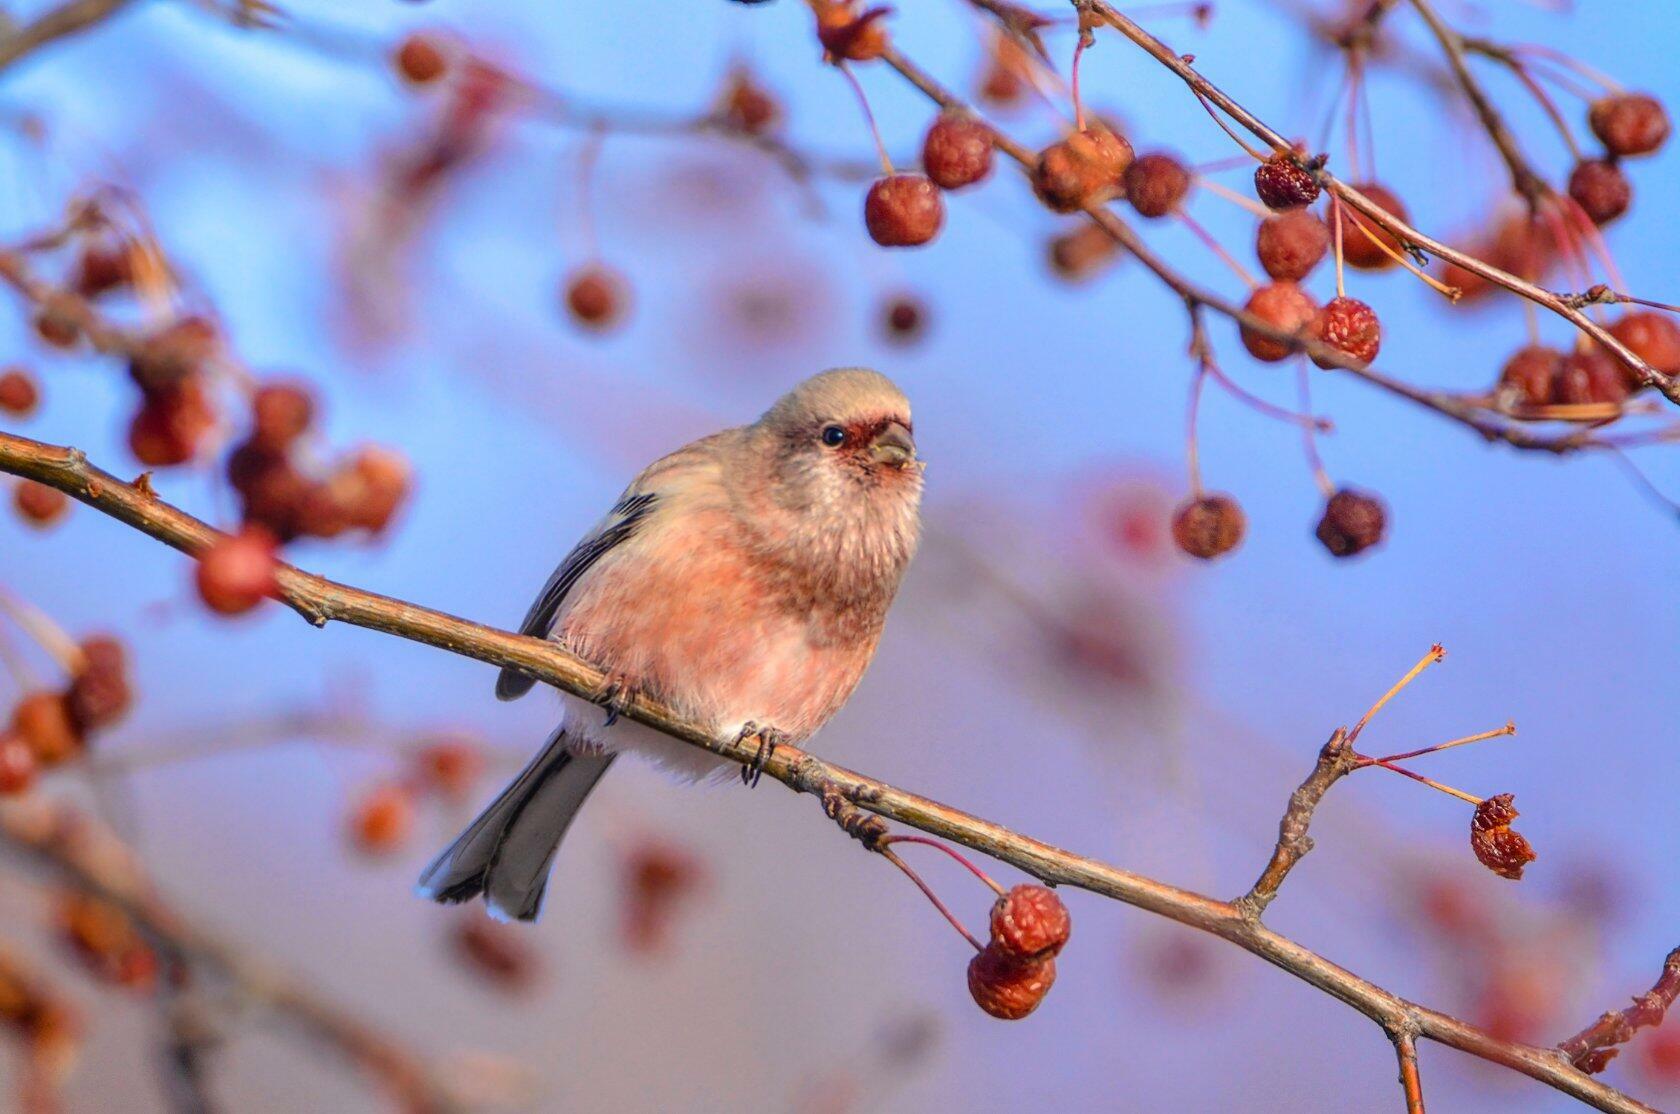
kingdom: Animalia
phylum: Chordata
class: Aves
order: Passeriformes
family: Fringillidae
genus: Carpodacus
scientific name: Carpodacus sibiricus
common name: Long-tailed rosefinch
